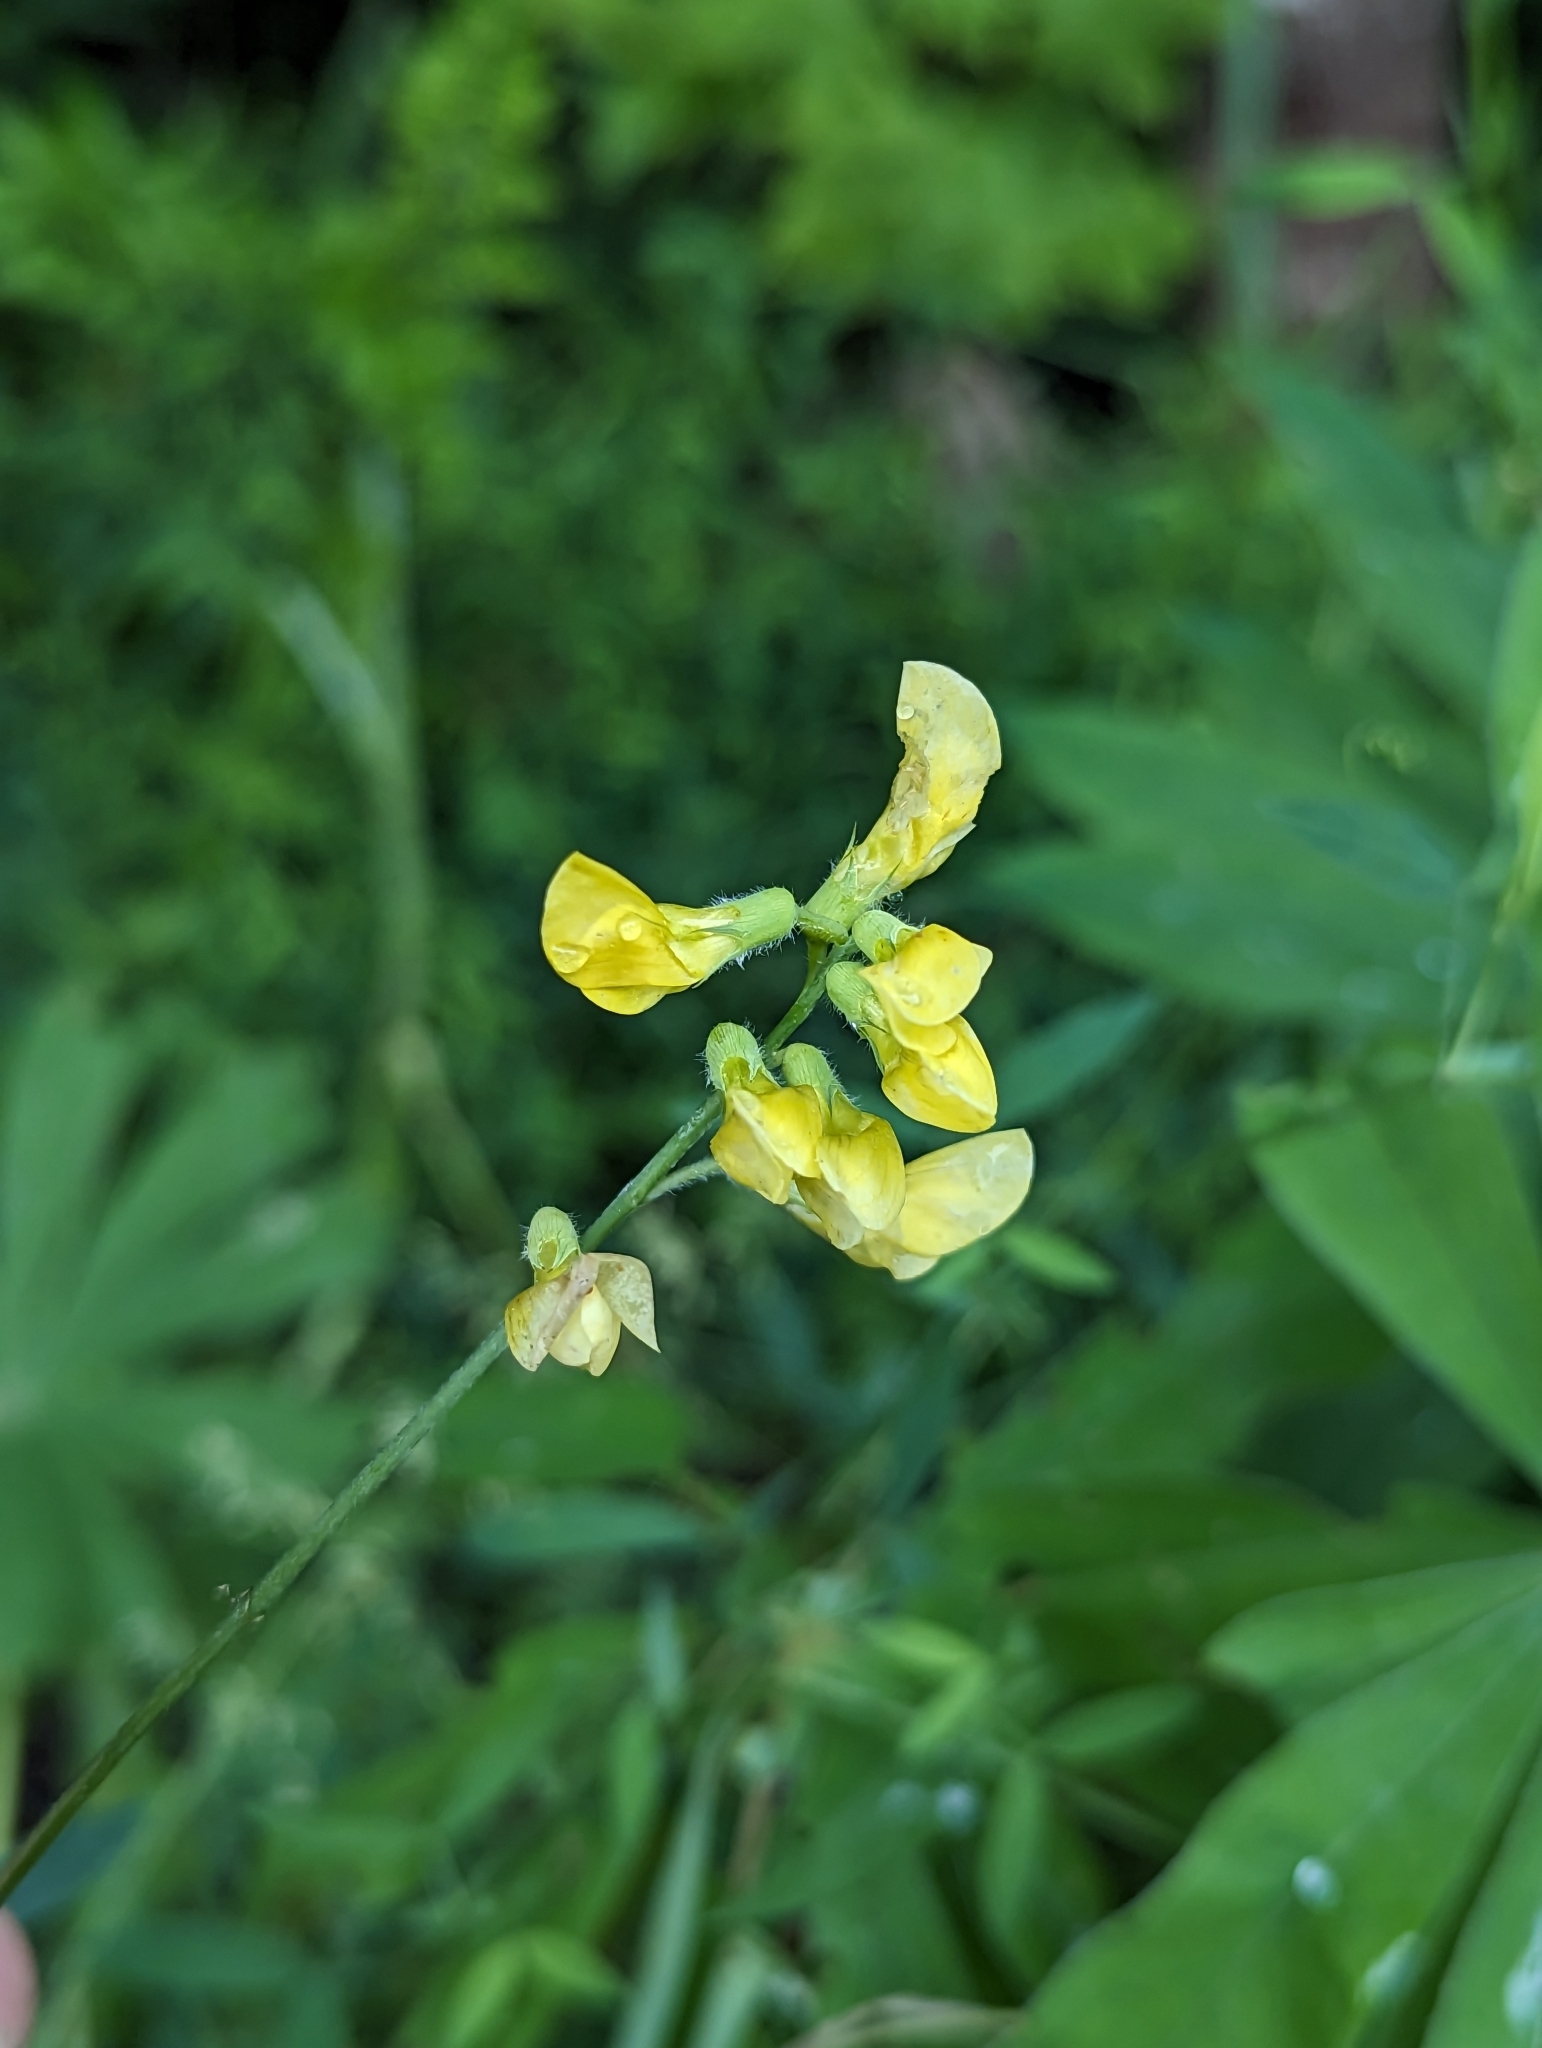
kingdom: Plantae
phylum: Tracheophyta
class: Magnoliopsida
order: Fabales
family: Fabaceae
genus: Lathyrus
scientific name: Lathyrus pratensis
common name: Meadow vetchling
